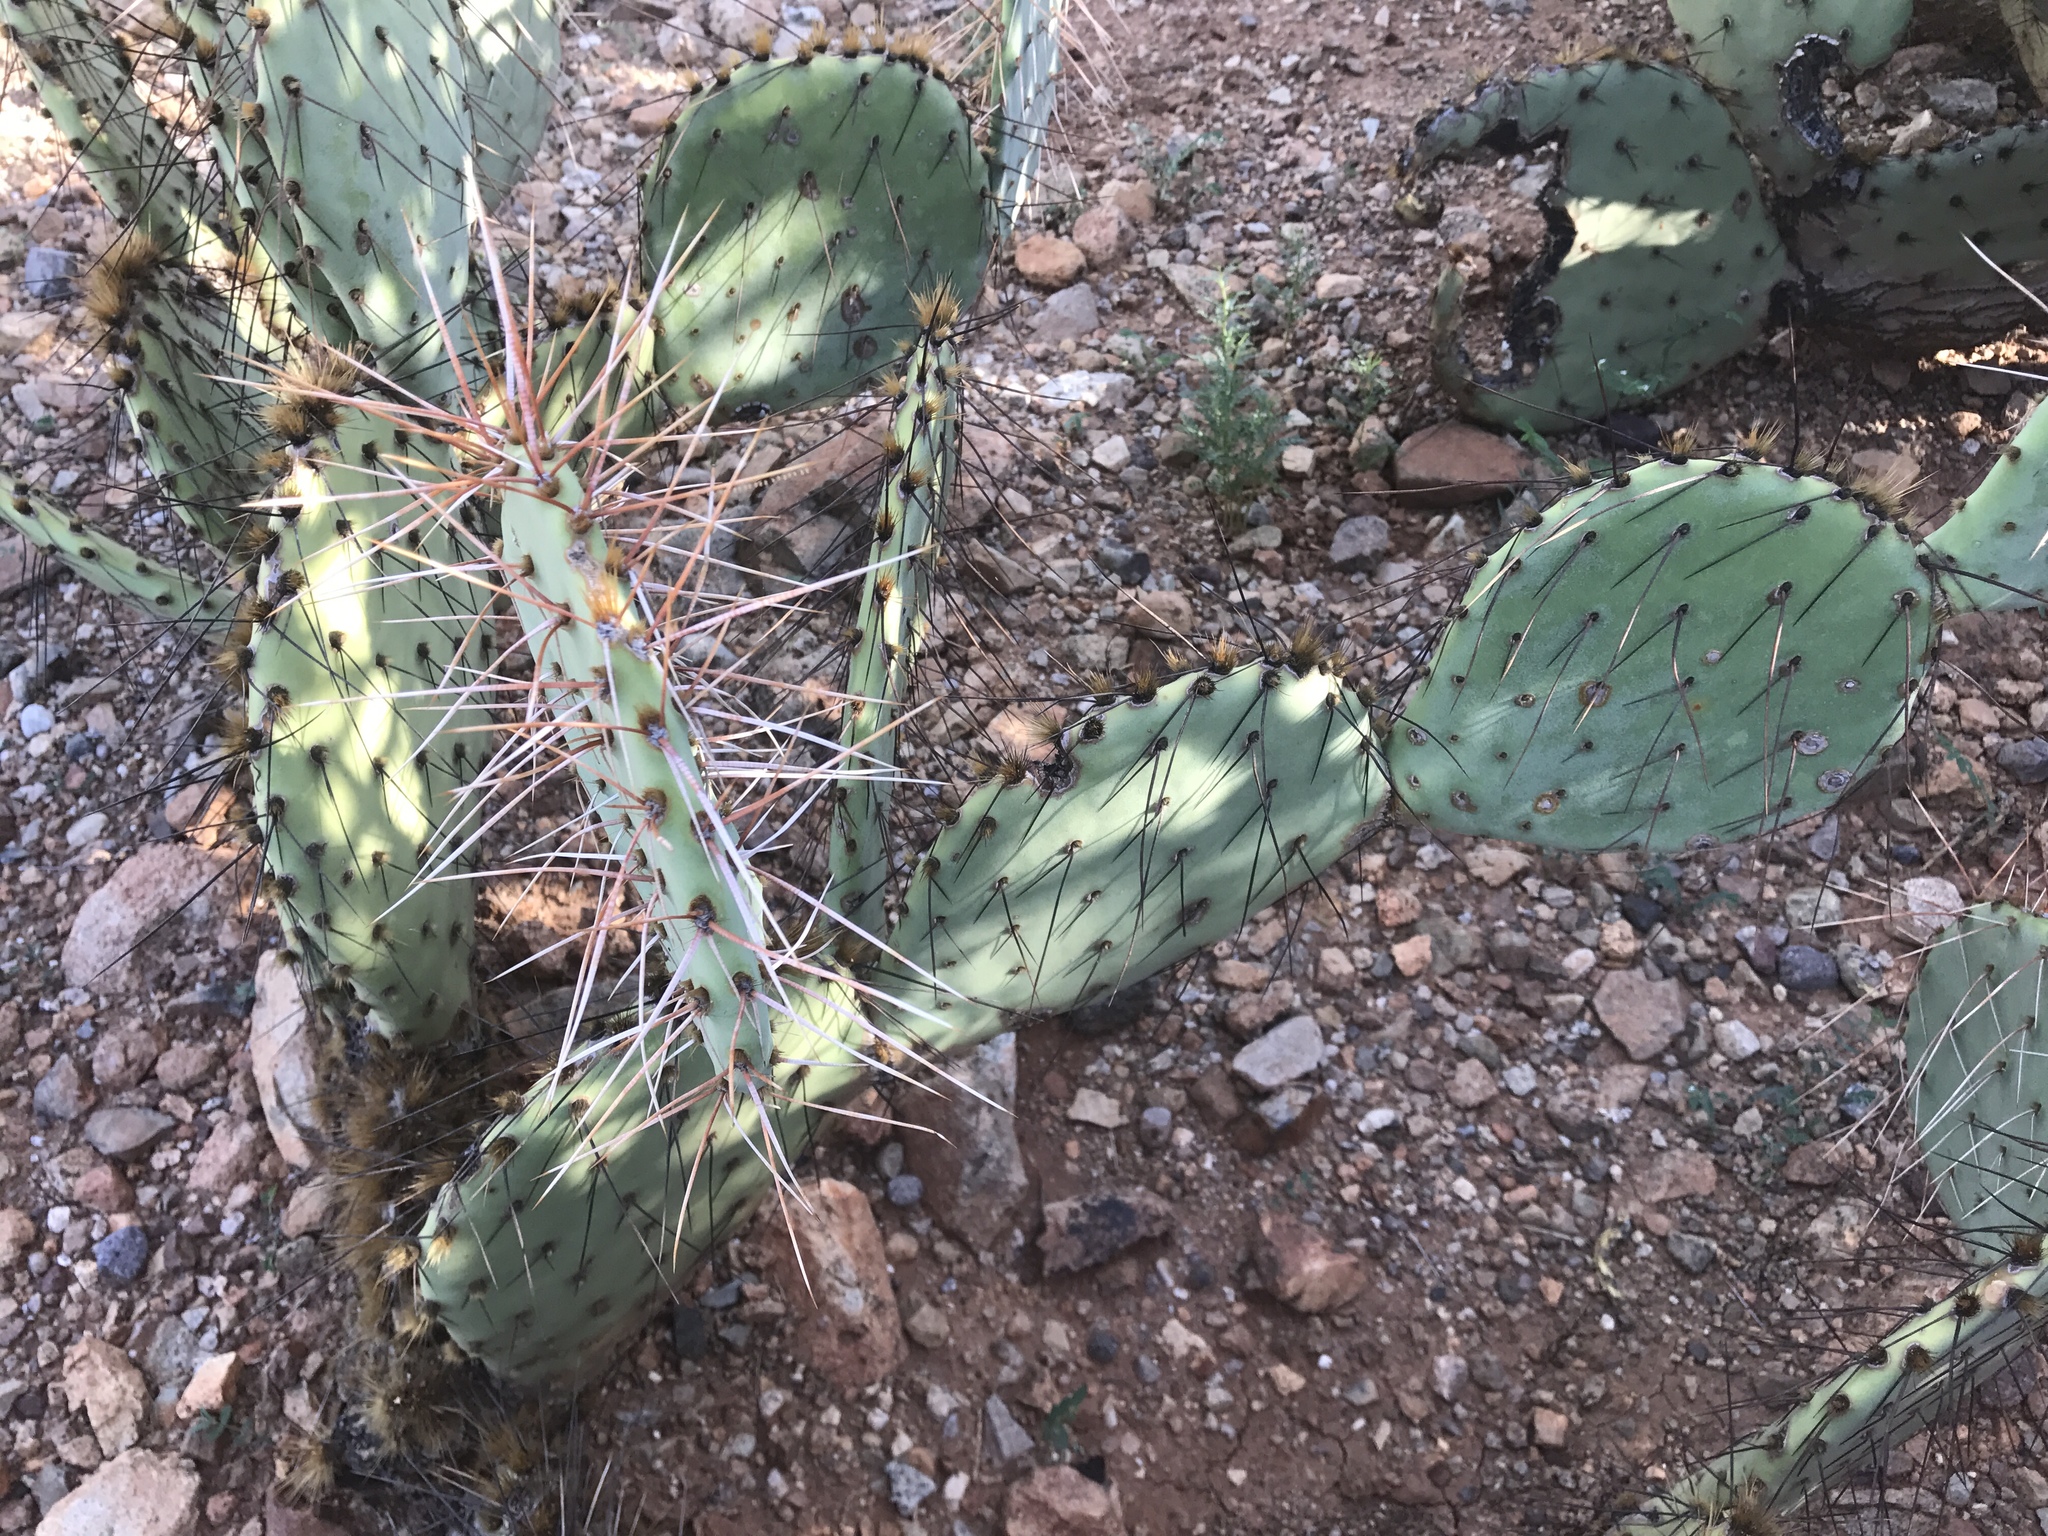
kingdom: Plantae
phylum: Tracheophyta
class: Magnoliopsida
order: Caryophyllales
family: Cactaceae
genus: Opuntia
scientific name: Opuntia phaeacantha
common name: New mexico prickly-pear
